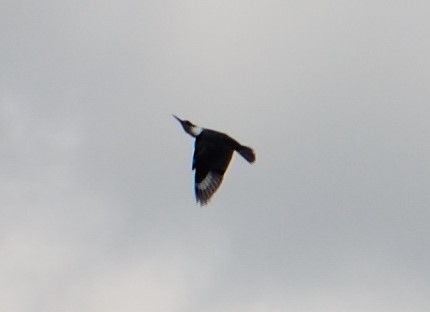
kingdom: Animalia
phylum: Chordata
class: Aves
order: Coraciiformes
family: Alcedinidae
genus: Megaceryle
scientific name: Megaceryle alcyon
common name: Belted kingfisher
